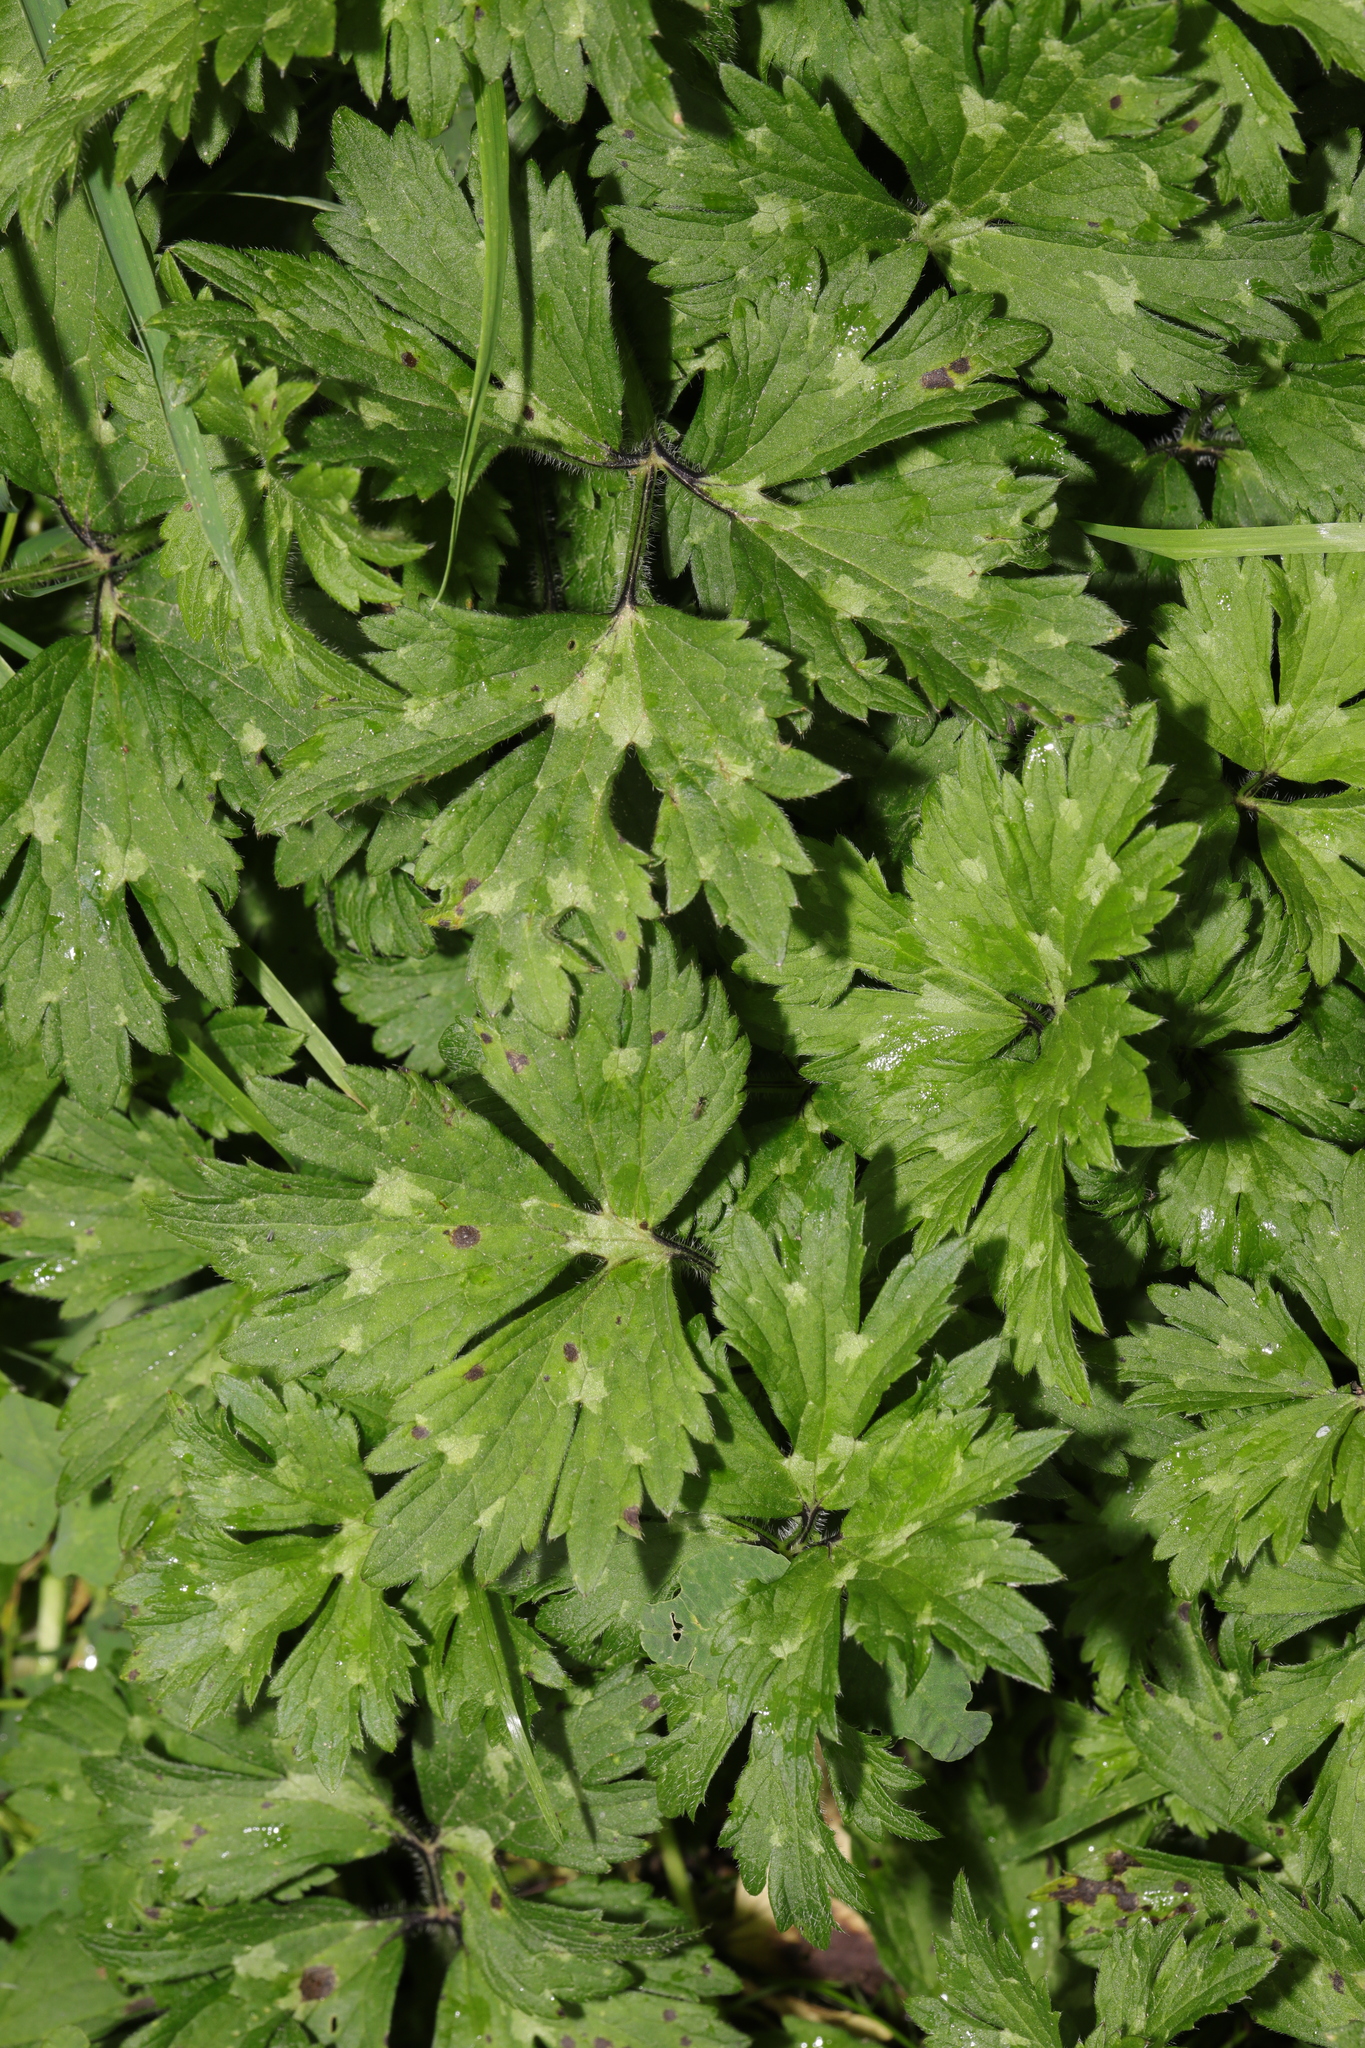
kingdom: Plantae
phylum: Tracheophyta
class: Magnoliopsida
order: Ranunculales
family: Ranunculaceae
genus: Ranunculus
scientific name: Ranunculus repens
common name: Creeping buttercup
